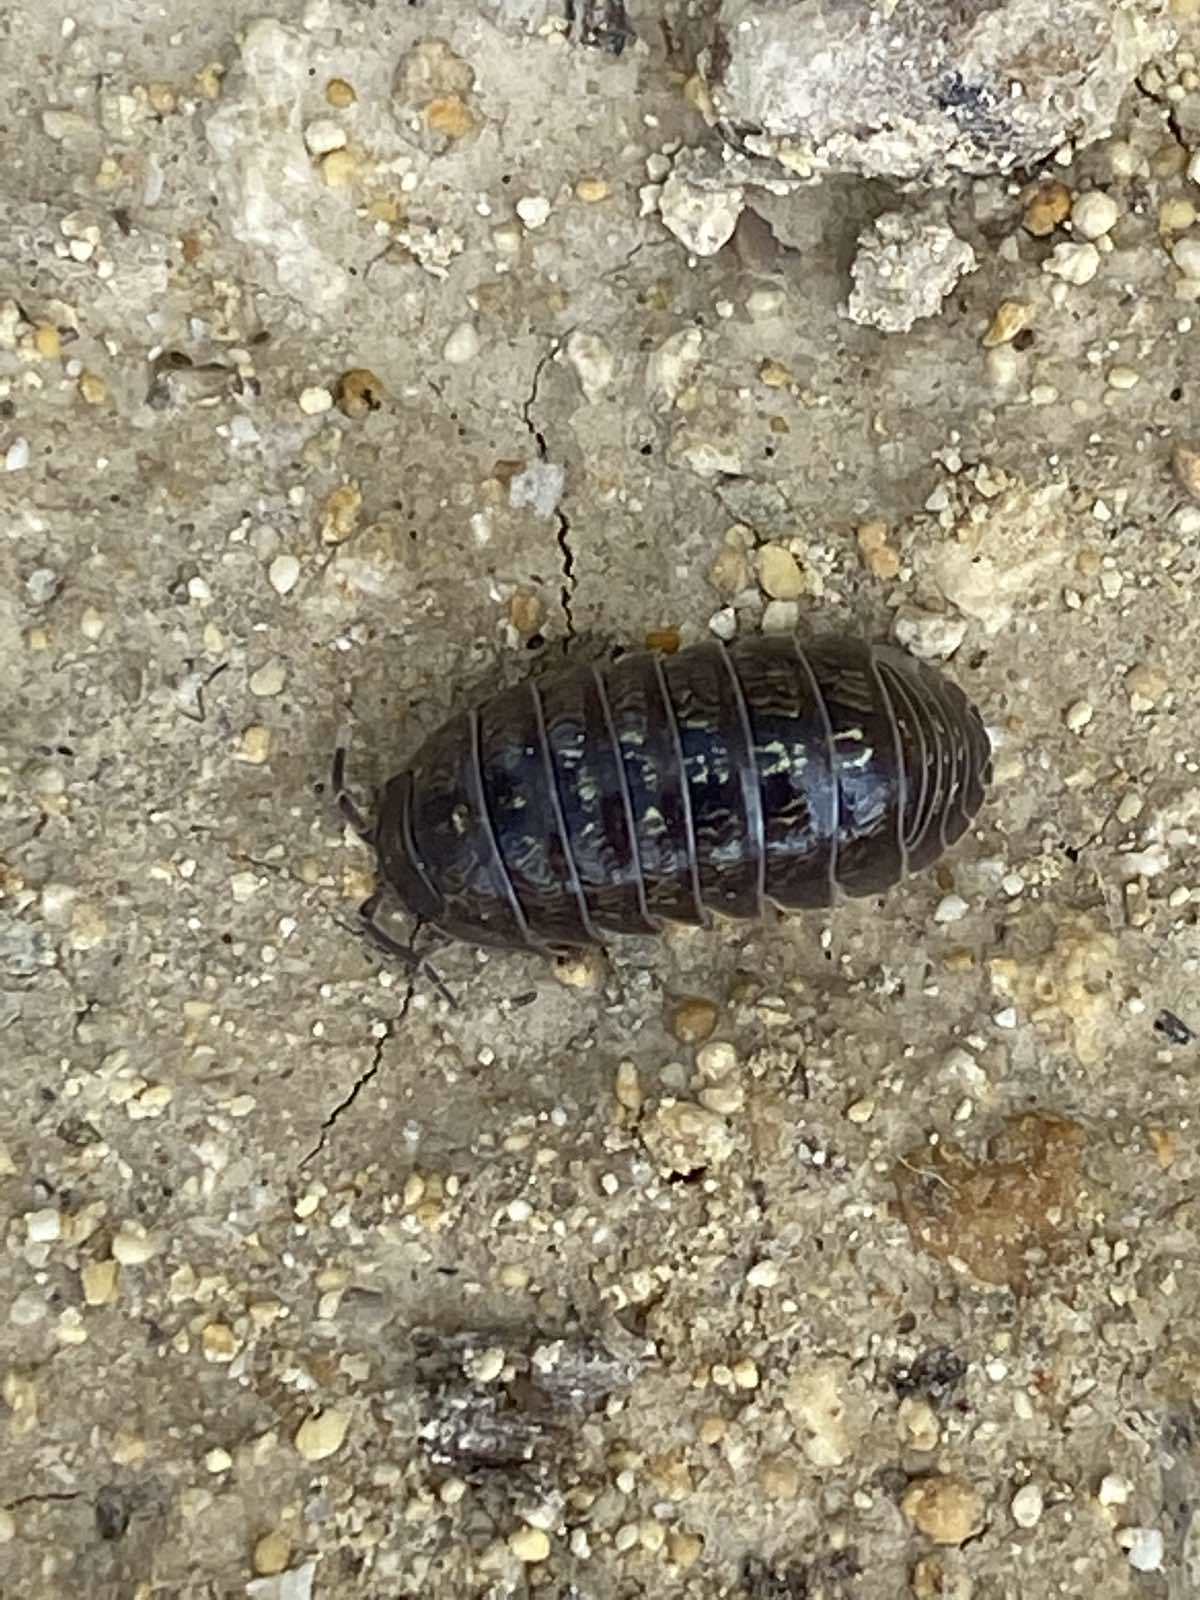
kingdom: Animalia
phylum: Arthropoda
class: Malacostraca
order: Isopoda
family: Armadillidiidae
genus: Armadillidium
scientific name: Armadillidium vulgare
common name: Common pill woodlouse
